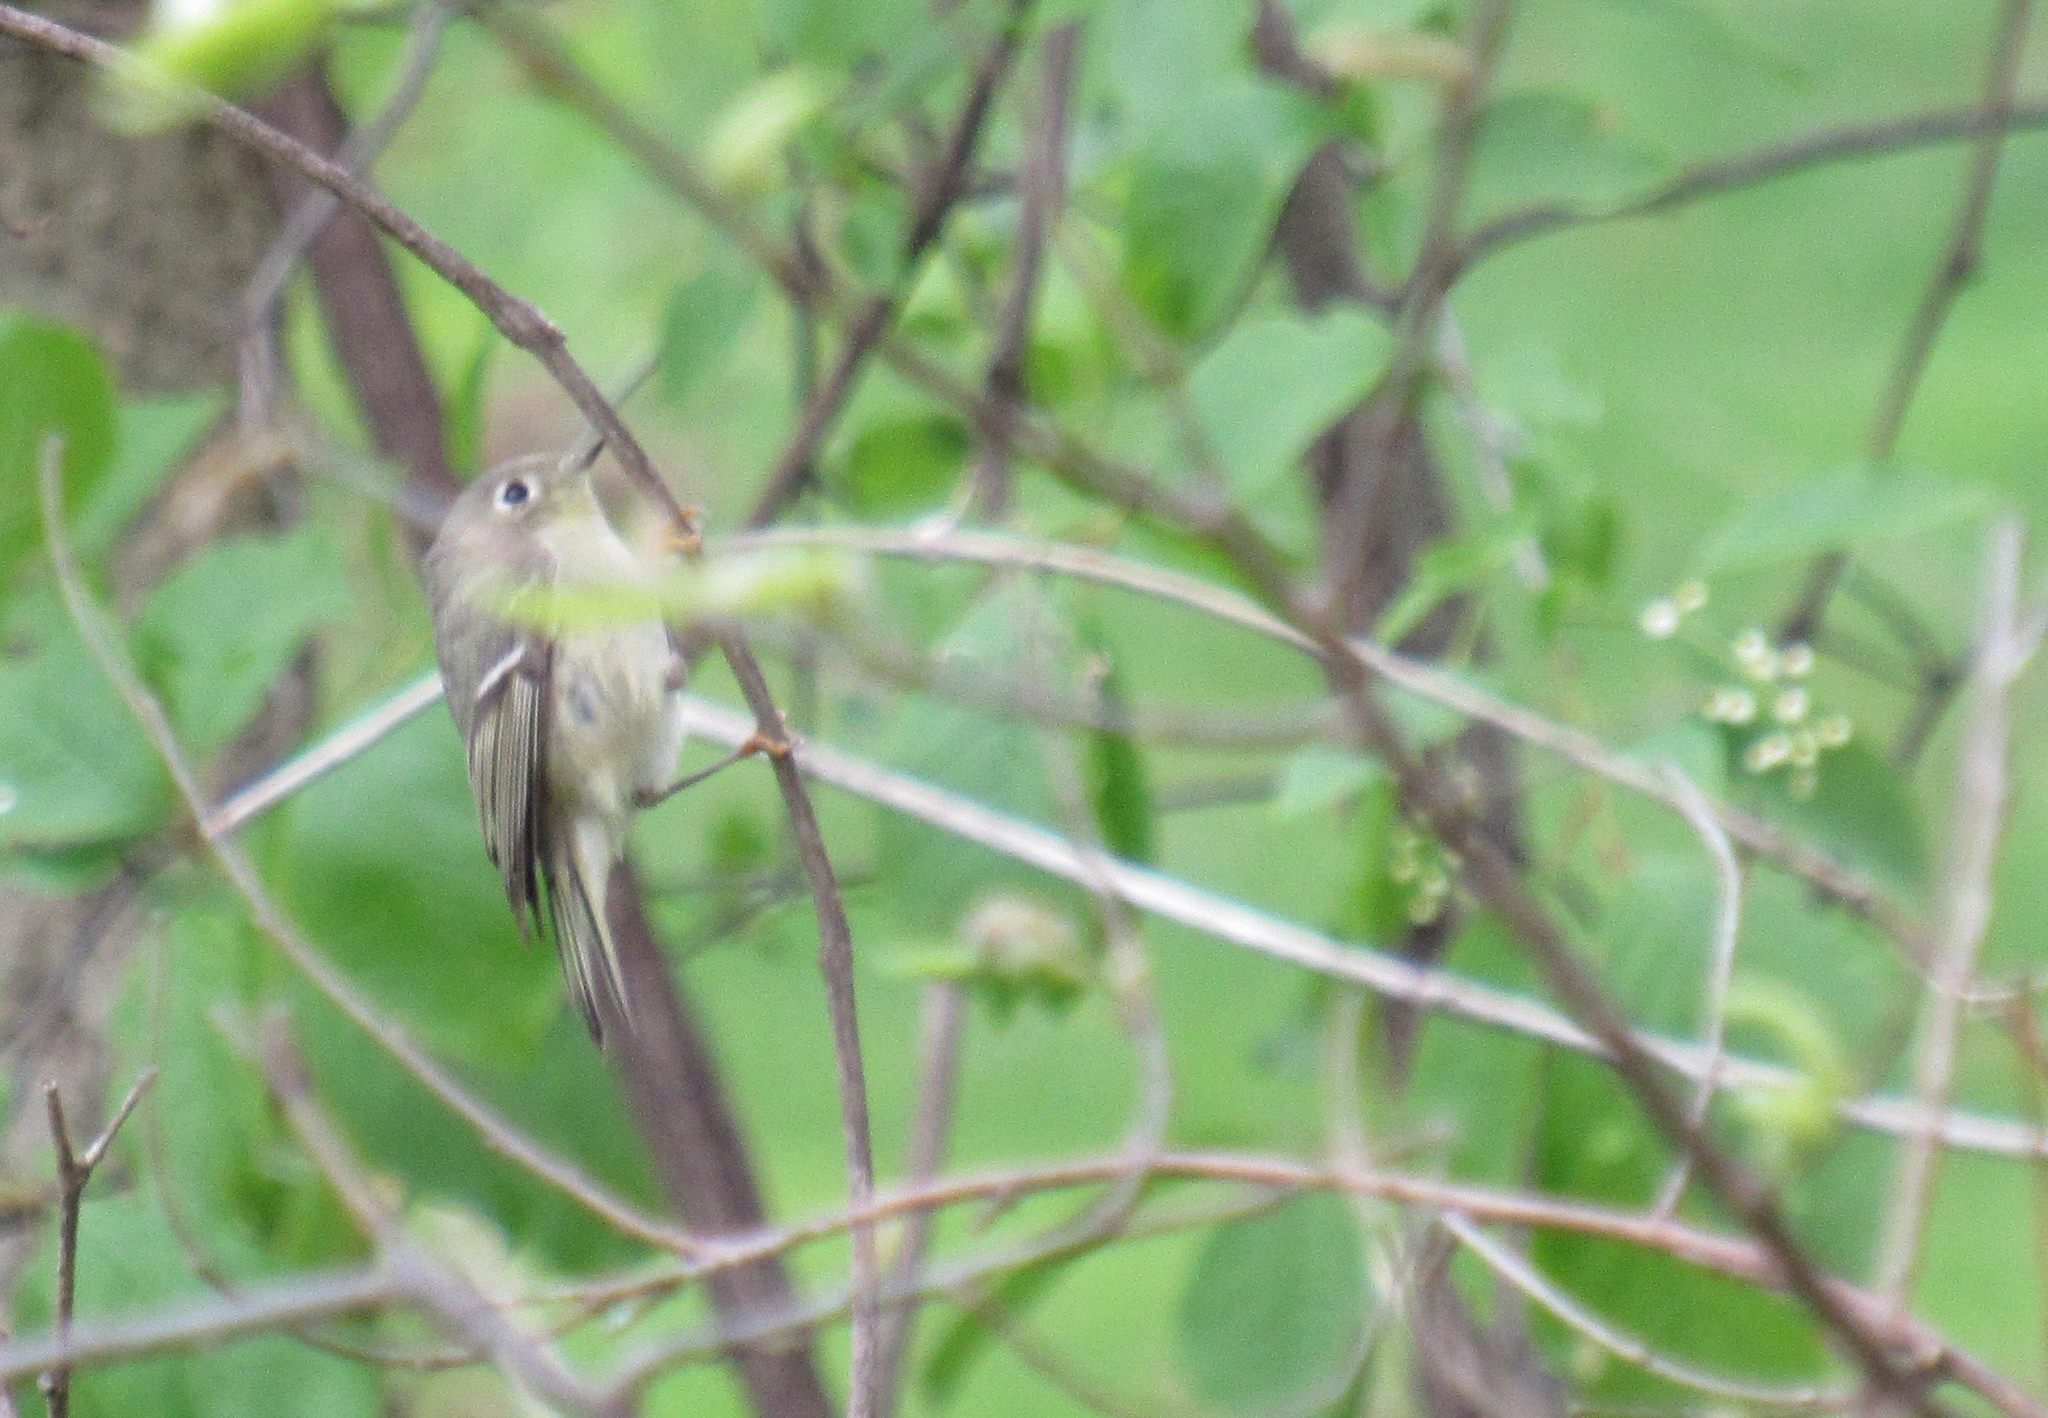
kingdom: Animalia
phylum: Chordata
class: Aves
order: Passeriformes
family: Regulidae
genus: Regulus
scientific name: Regulus calendula
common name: Ruby-crowned kinglet
